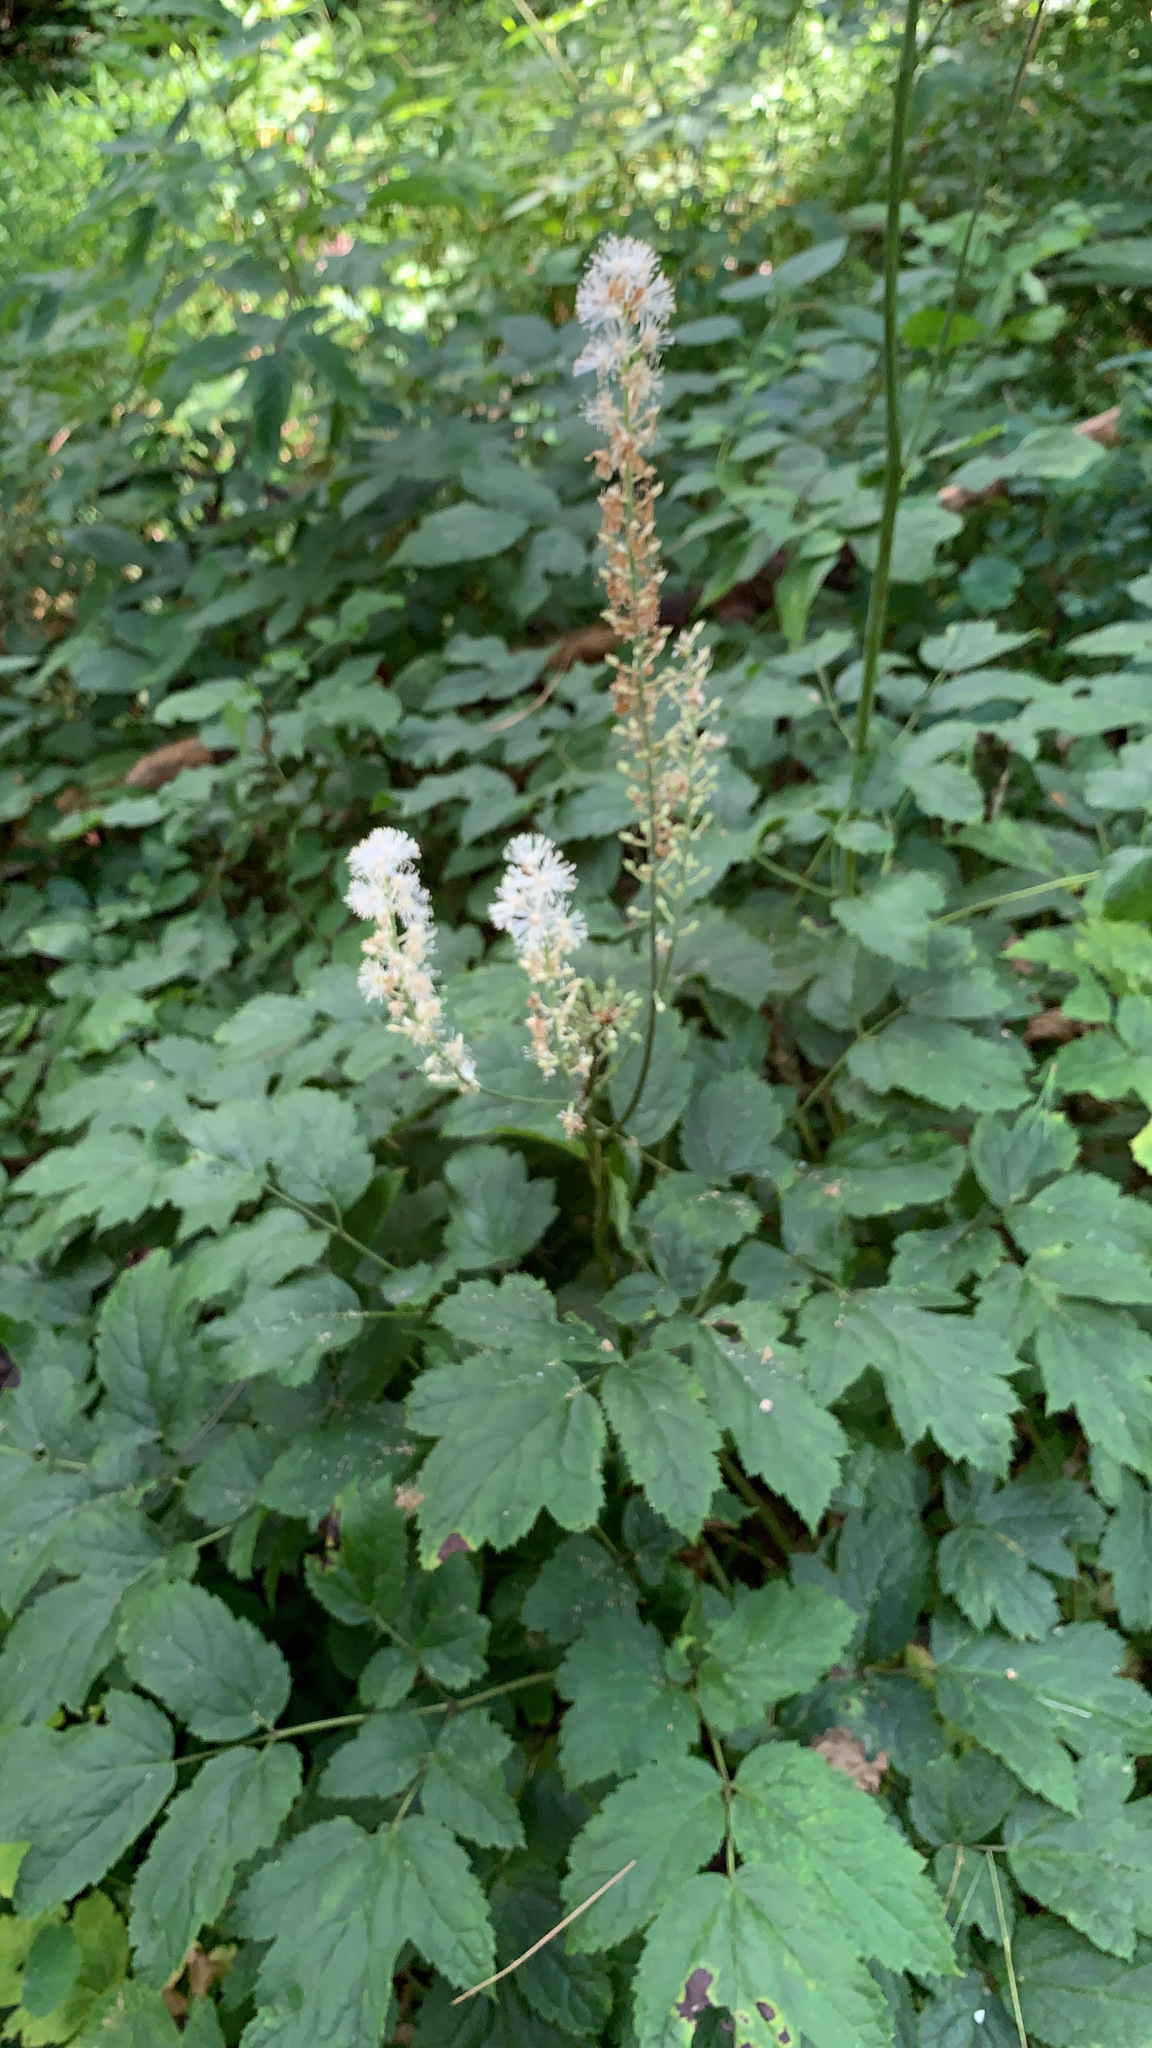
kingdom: Plantae
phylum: Tracheophyta
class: Magnoliopsida
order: Ranunculales
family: Ranunculaceae
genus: Actaea
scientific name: Actaea racemosa
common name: Black cohosh
